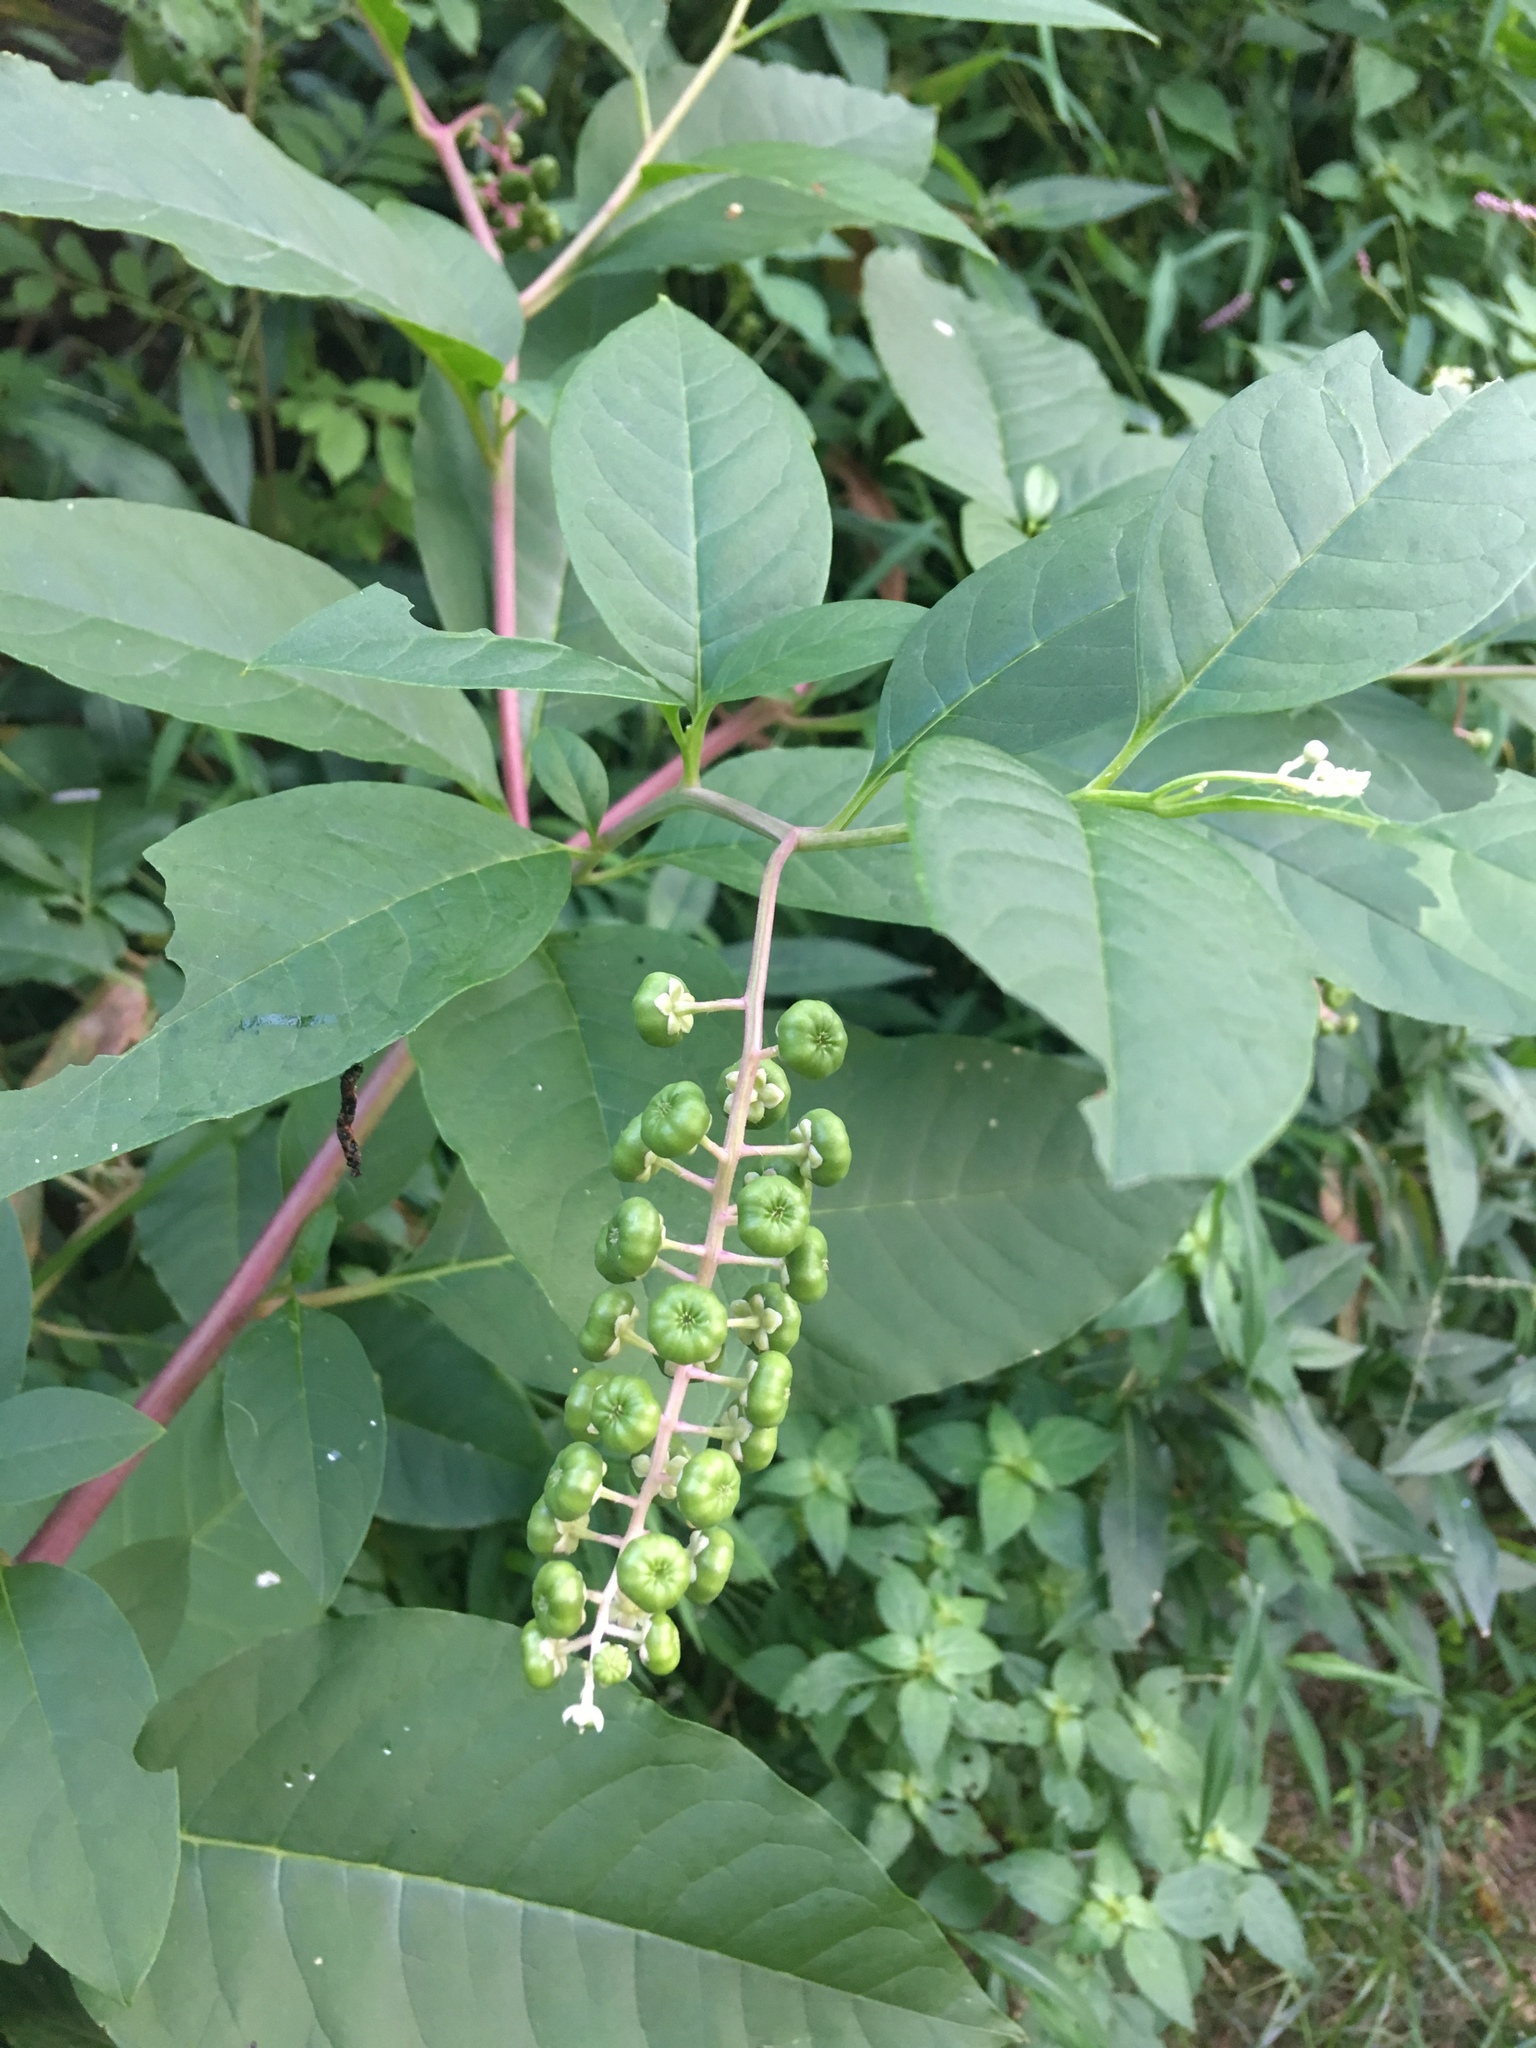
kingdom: Plantae
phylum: Tracheophyta
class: Magnoliopsida
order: Caryophyllales
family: Phytolaccaceae
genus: Phytolacca
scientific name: Phytolacca americana
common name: American pokeweed
